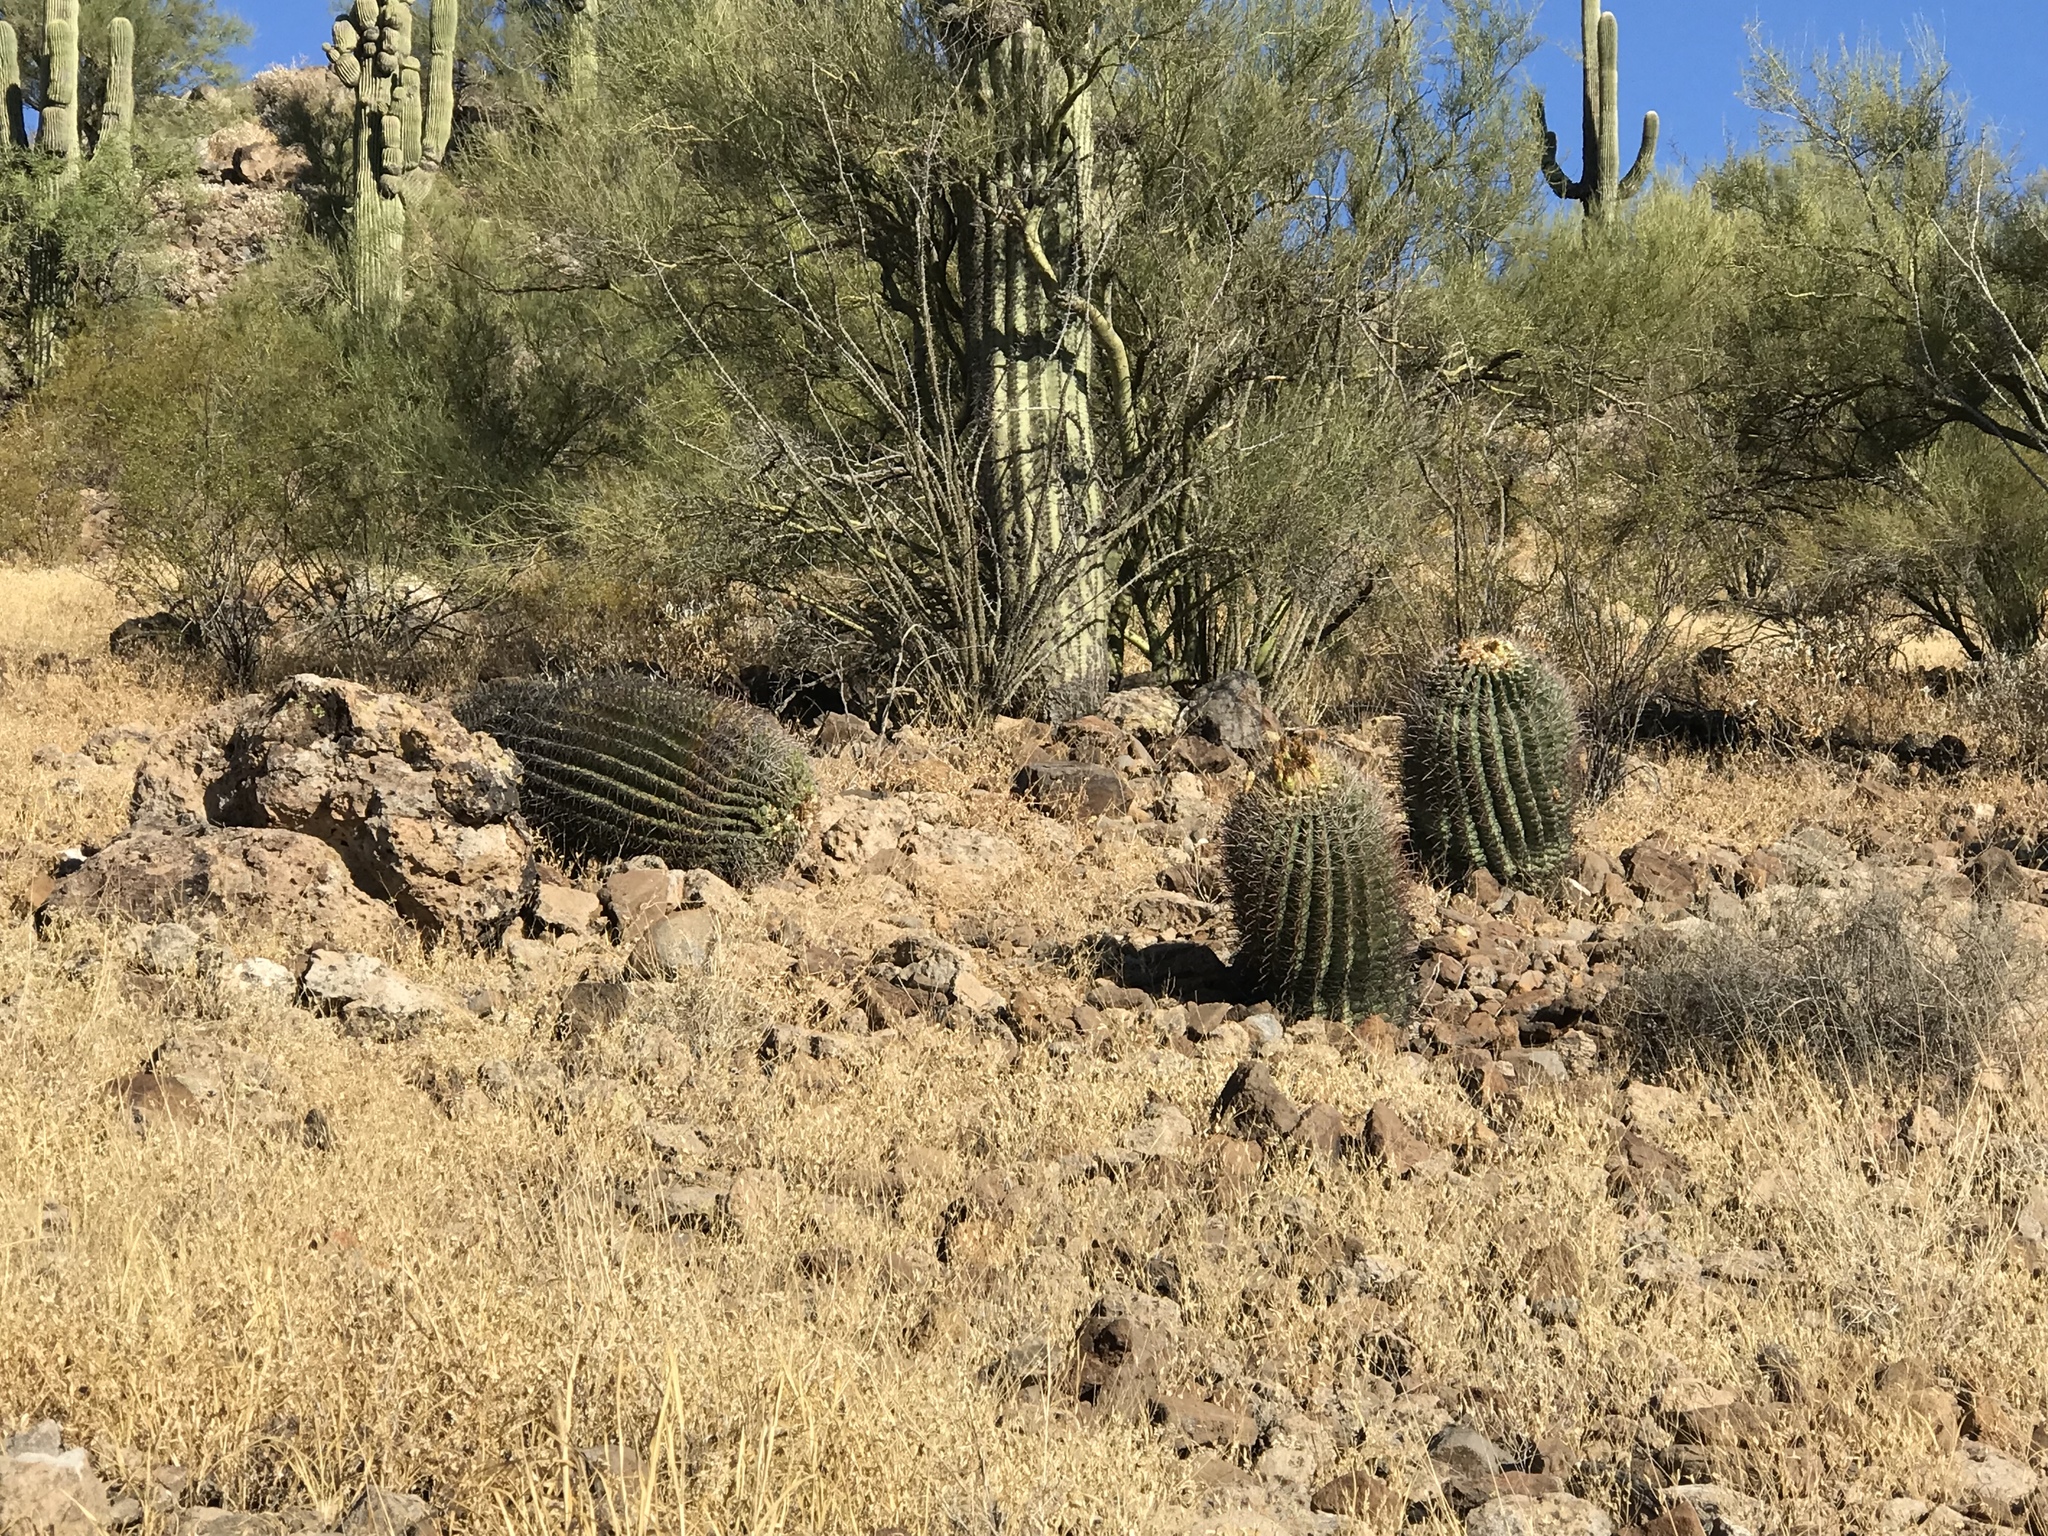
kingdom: Plantae
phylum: Tracheophyta
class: Magnoliopsida
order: Caryophyllales
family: Cactaceae
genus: Ferocactus
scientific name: Ferocactus wislizeni
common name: Candy barrel cactus
